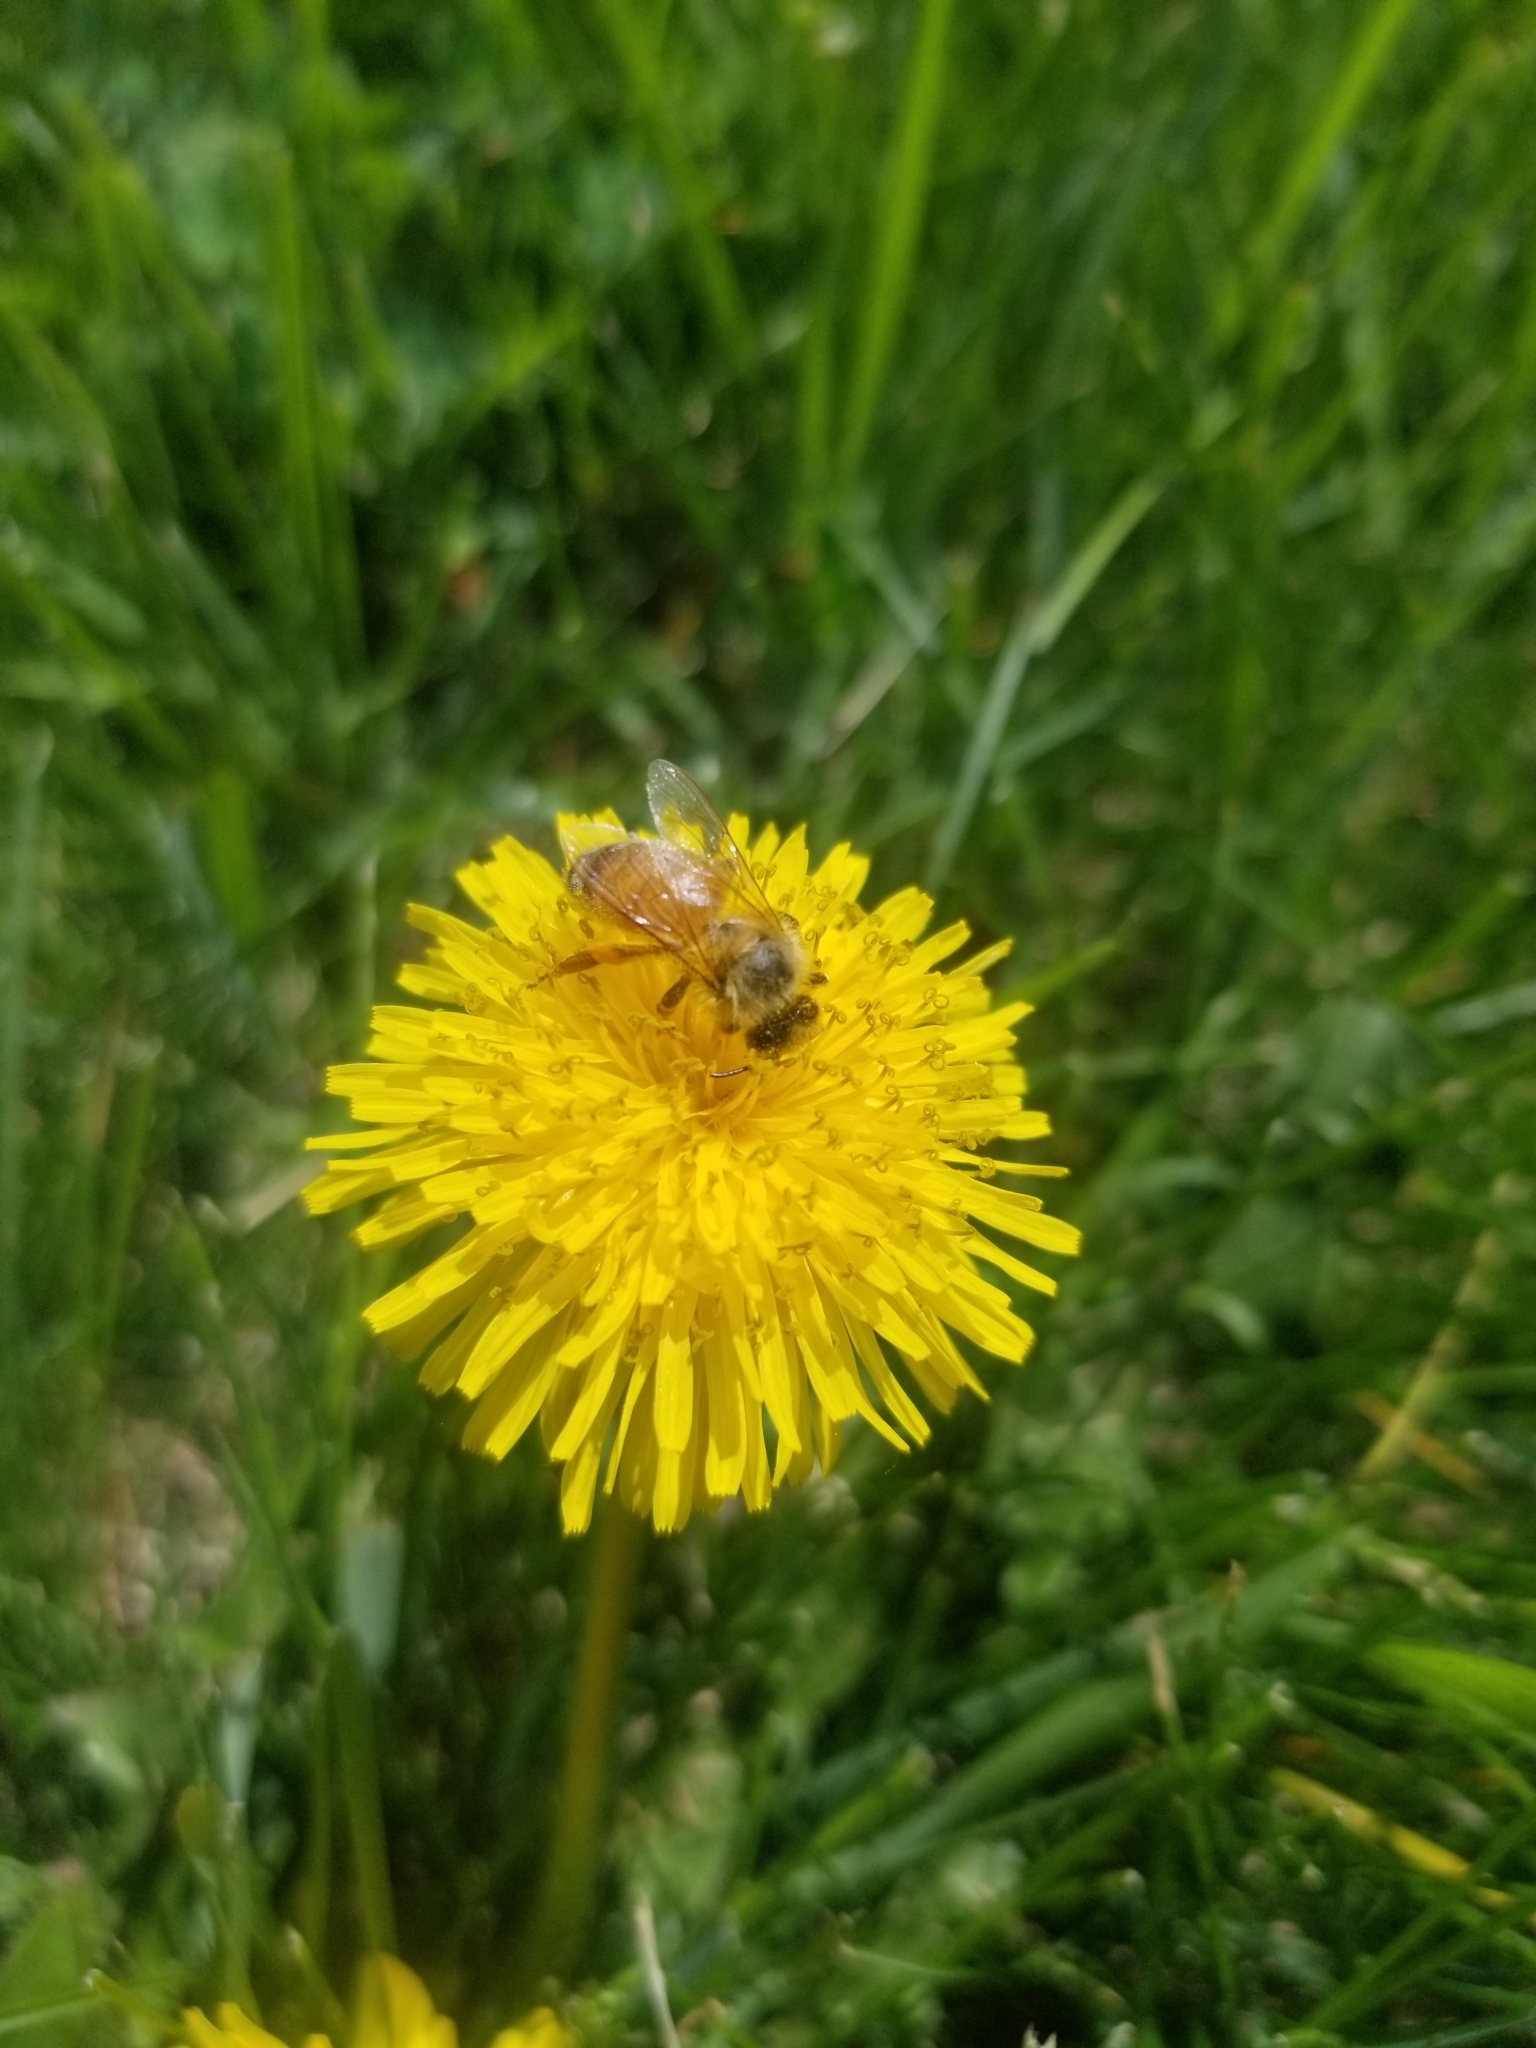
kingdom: Animalia
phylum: Arthropoda
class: Insecta
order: Hymenoptera
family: Apidae
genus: Apis
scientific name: Apis mellifera
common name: Honey bee
